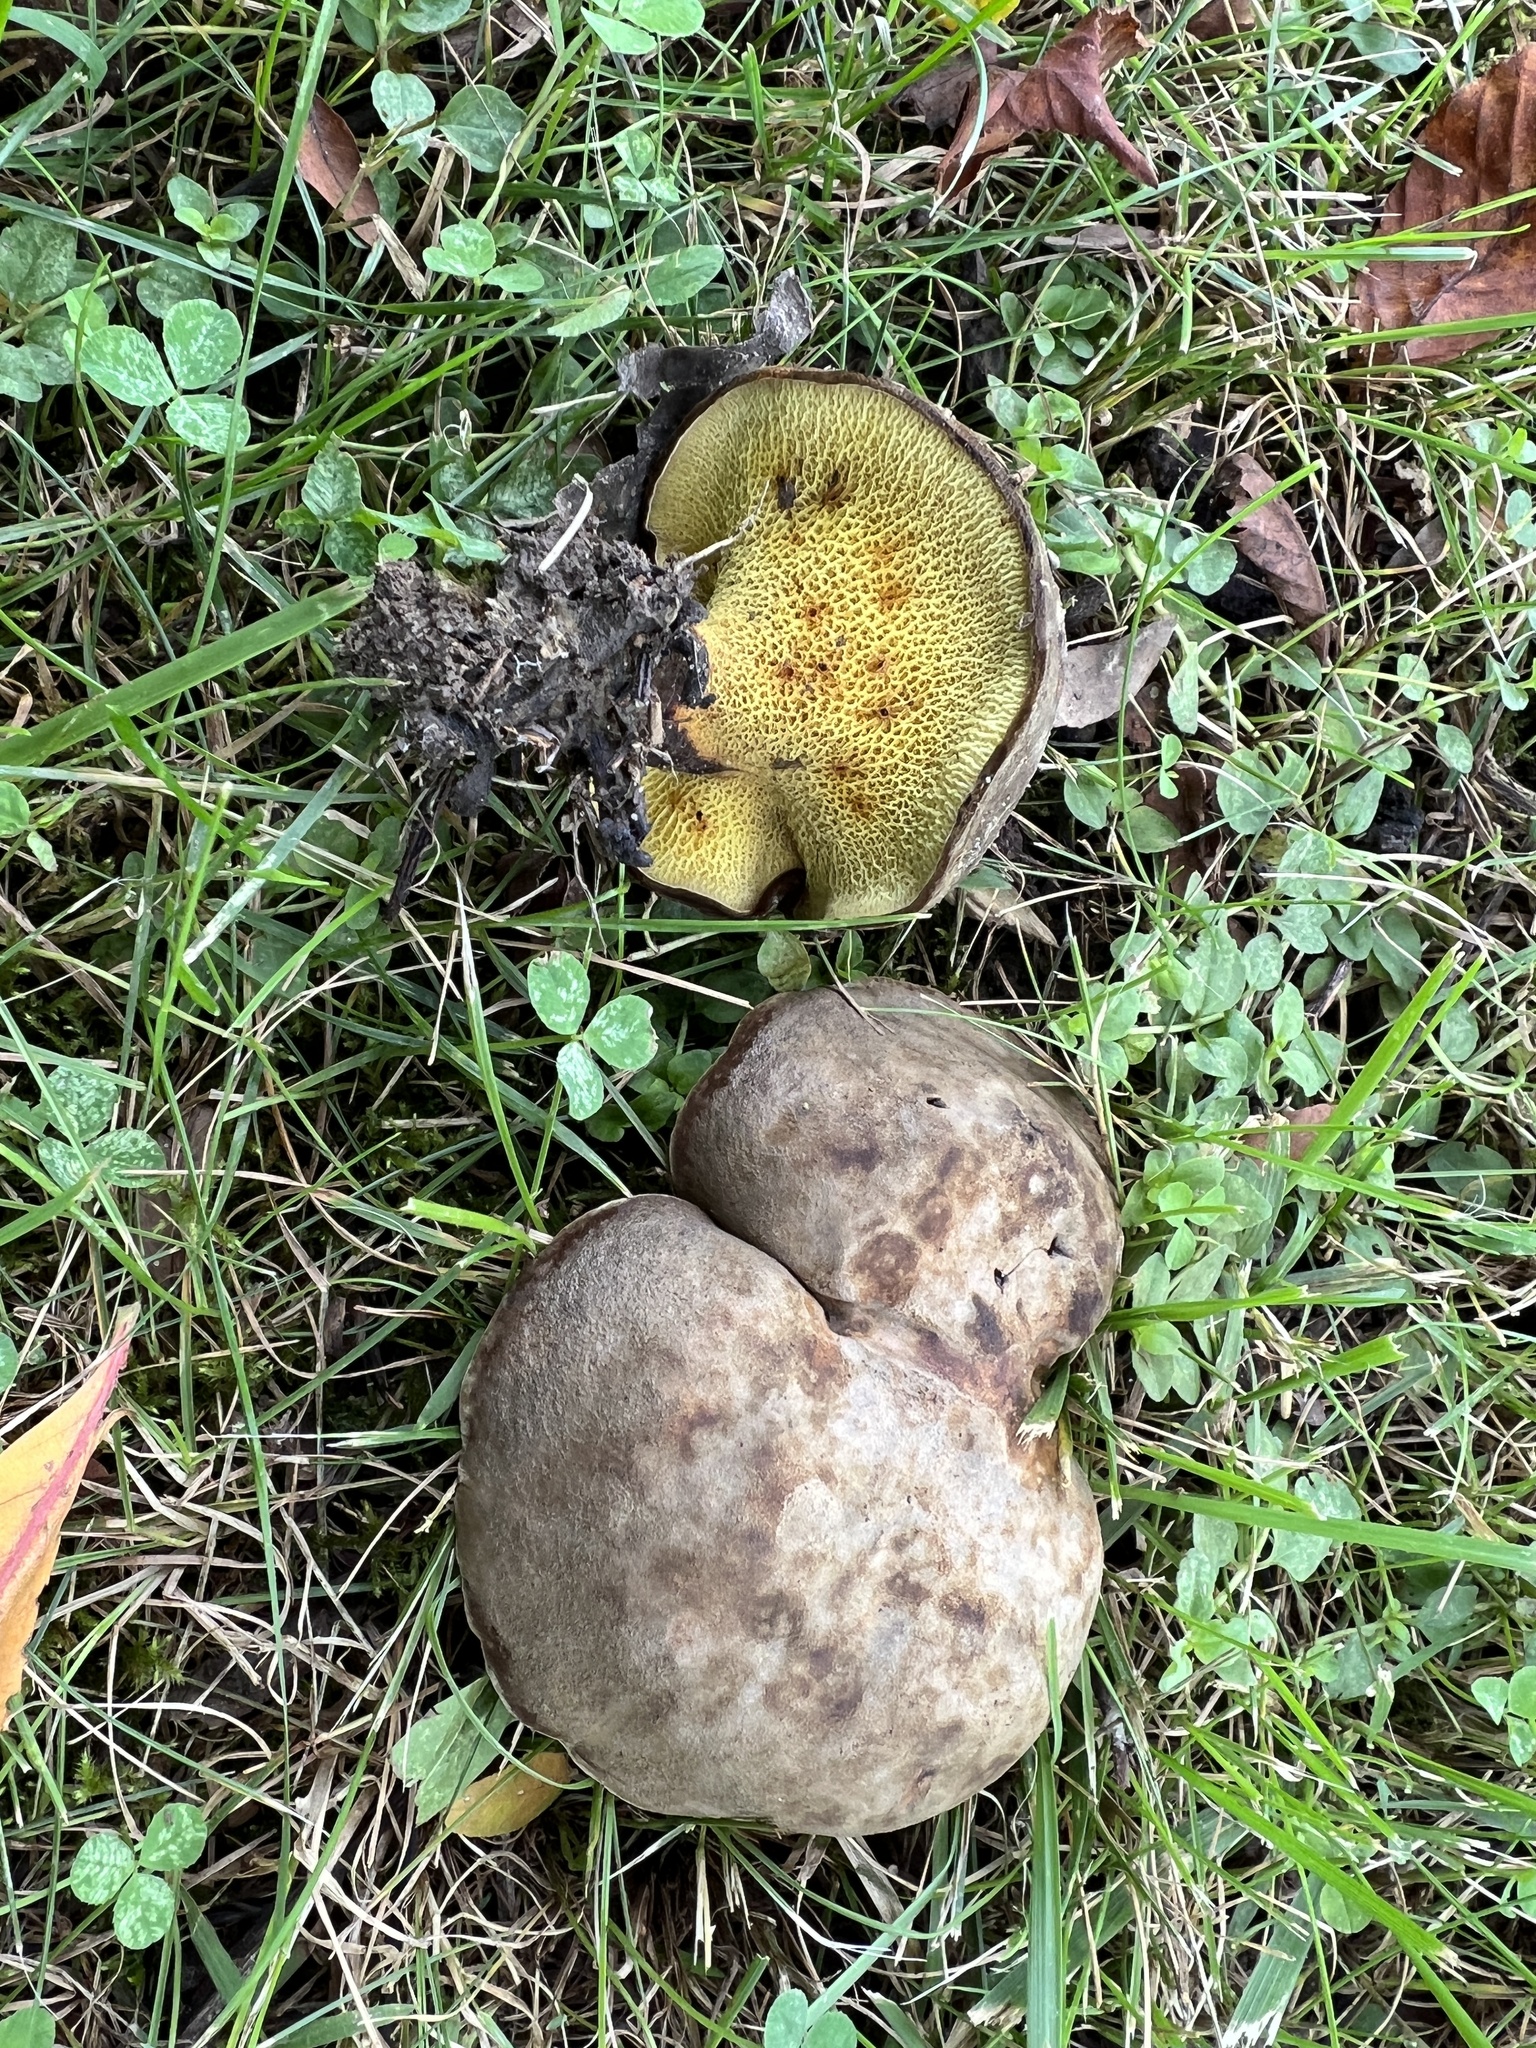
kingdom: Fungi
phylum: Basidiomycota
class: Agaricomycetes
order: Boletales
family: Boletinellaceae
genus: Boletinellus
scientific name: Boletinellus merulioides
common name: Ash tree bolete
